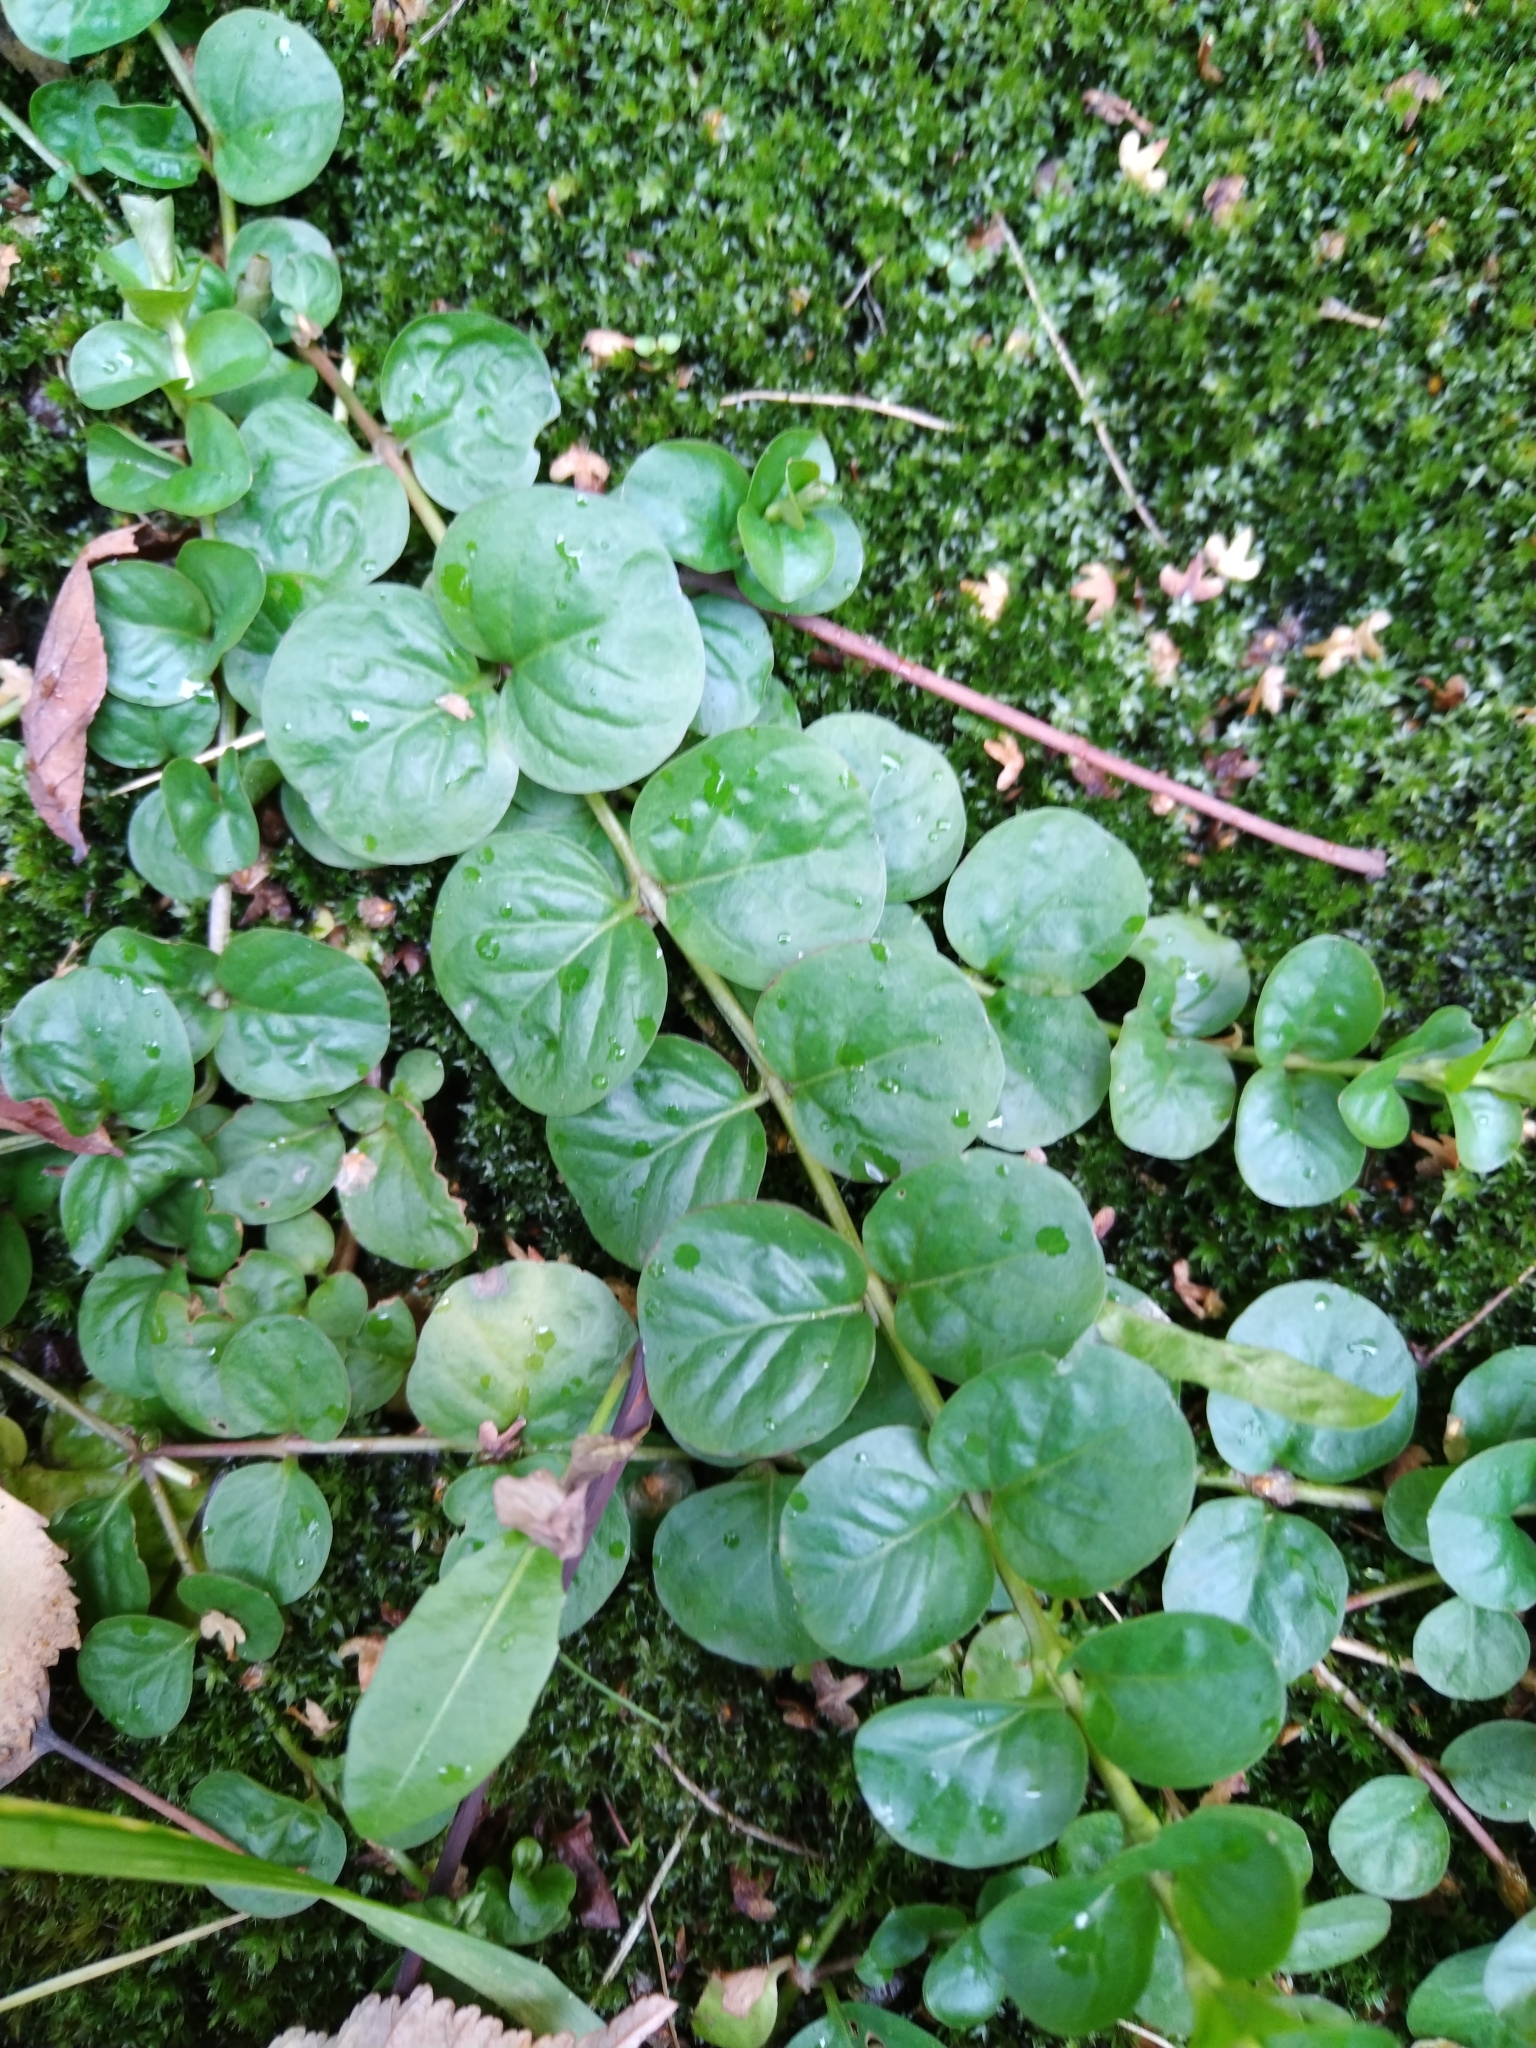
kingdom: Plantae
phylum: Tracheophyta
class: Magnoliopsida
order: Ericales
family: Primulaceae
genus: Lysimachia
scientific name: Lysimachia nummularia
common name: Moneywort
